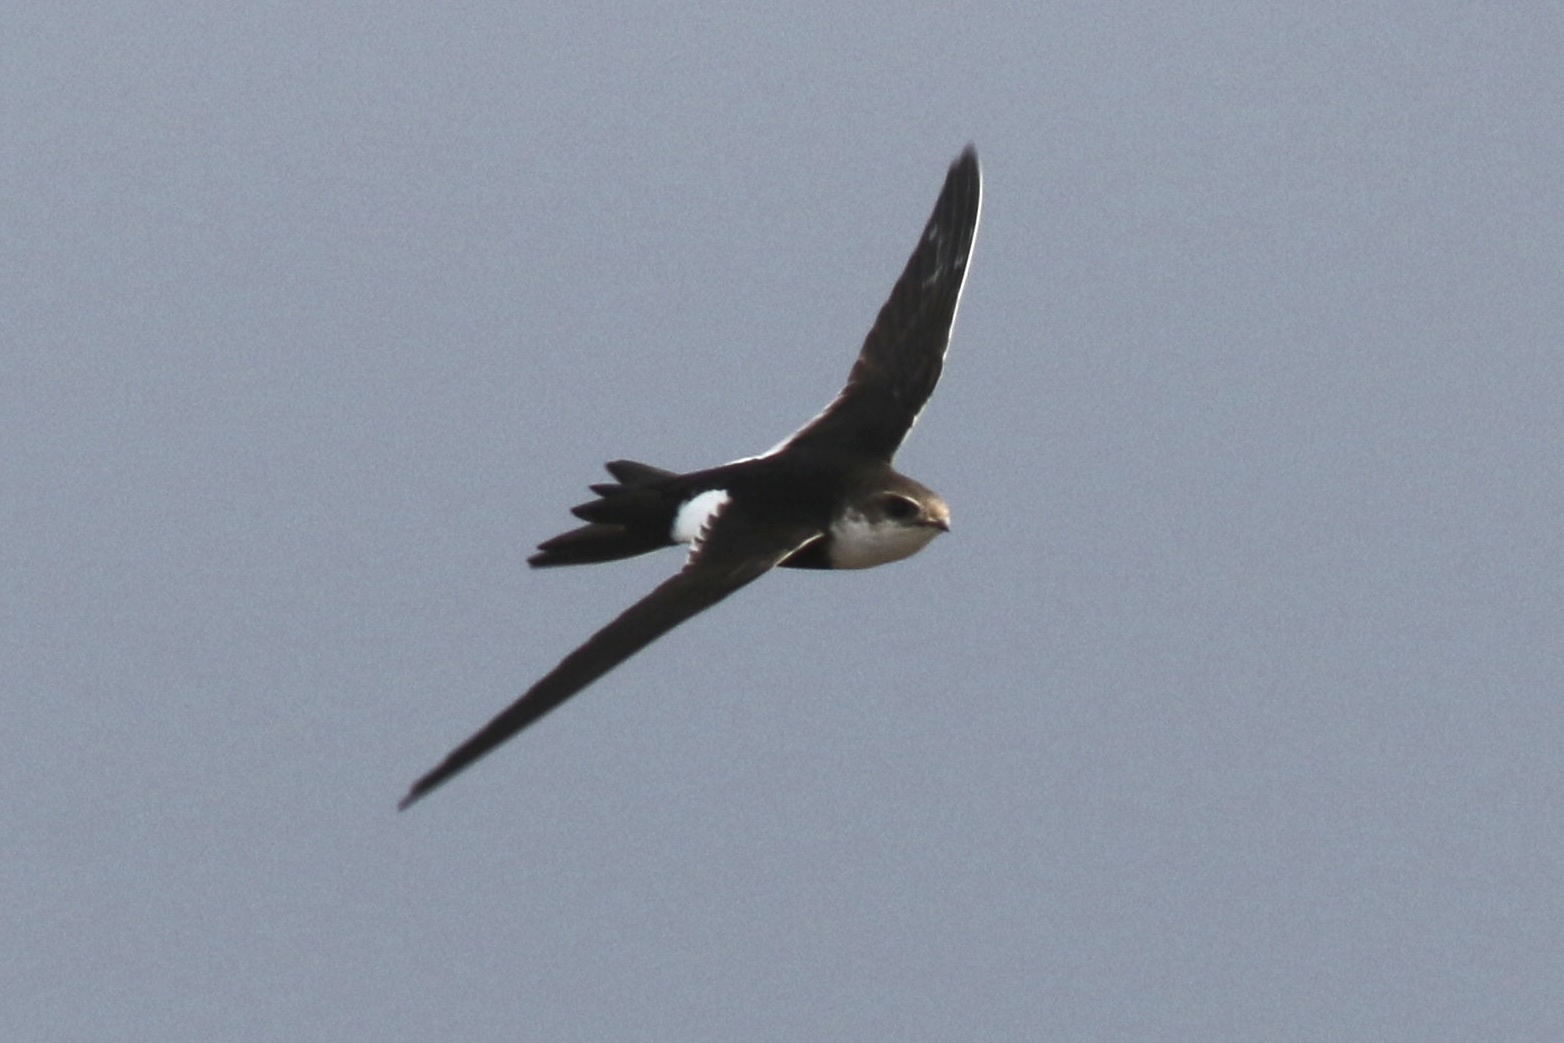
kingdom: Animalia
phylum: Chordata
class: Aves
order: Apodiformes
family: Apodidae
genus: Aeronautes
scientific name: Aeronautes saxatalis
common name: White-throated swift
